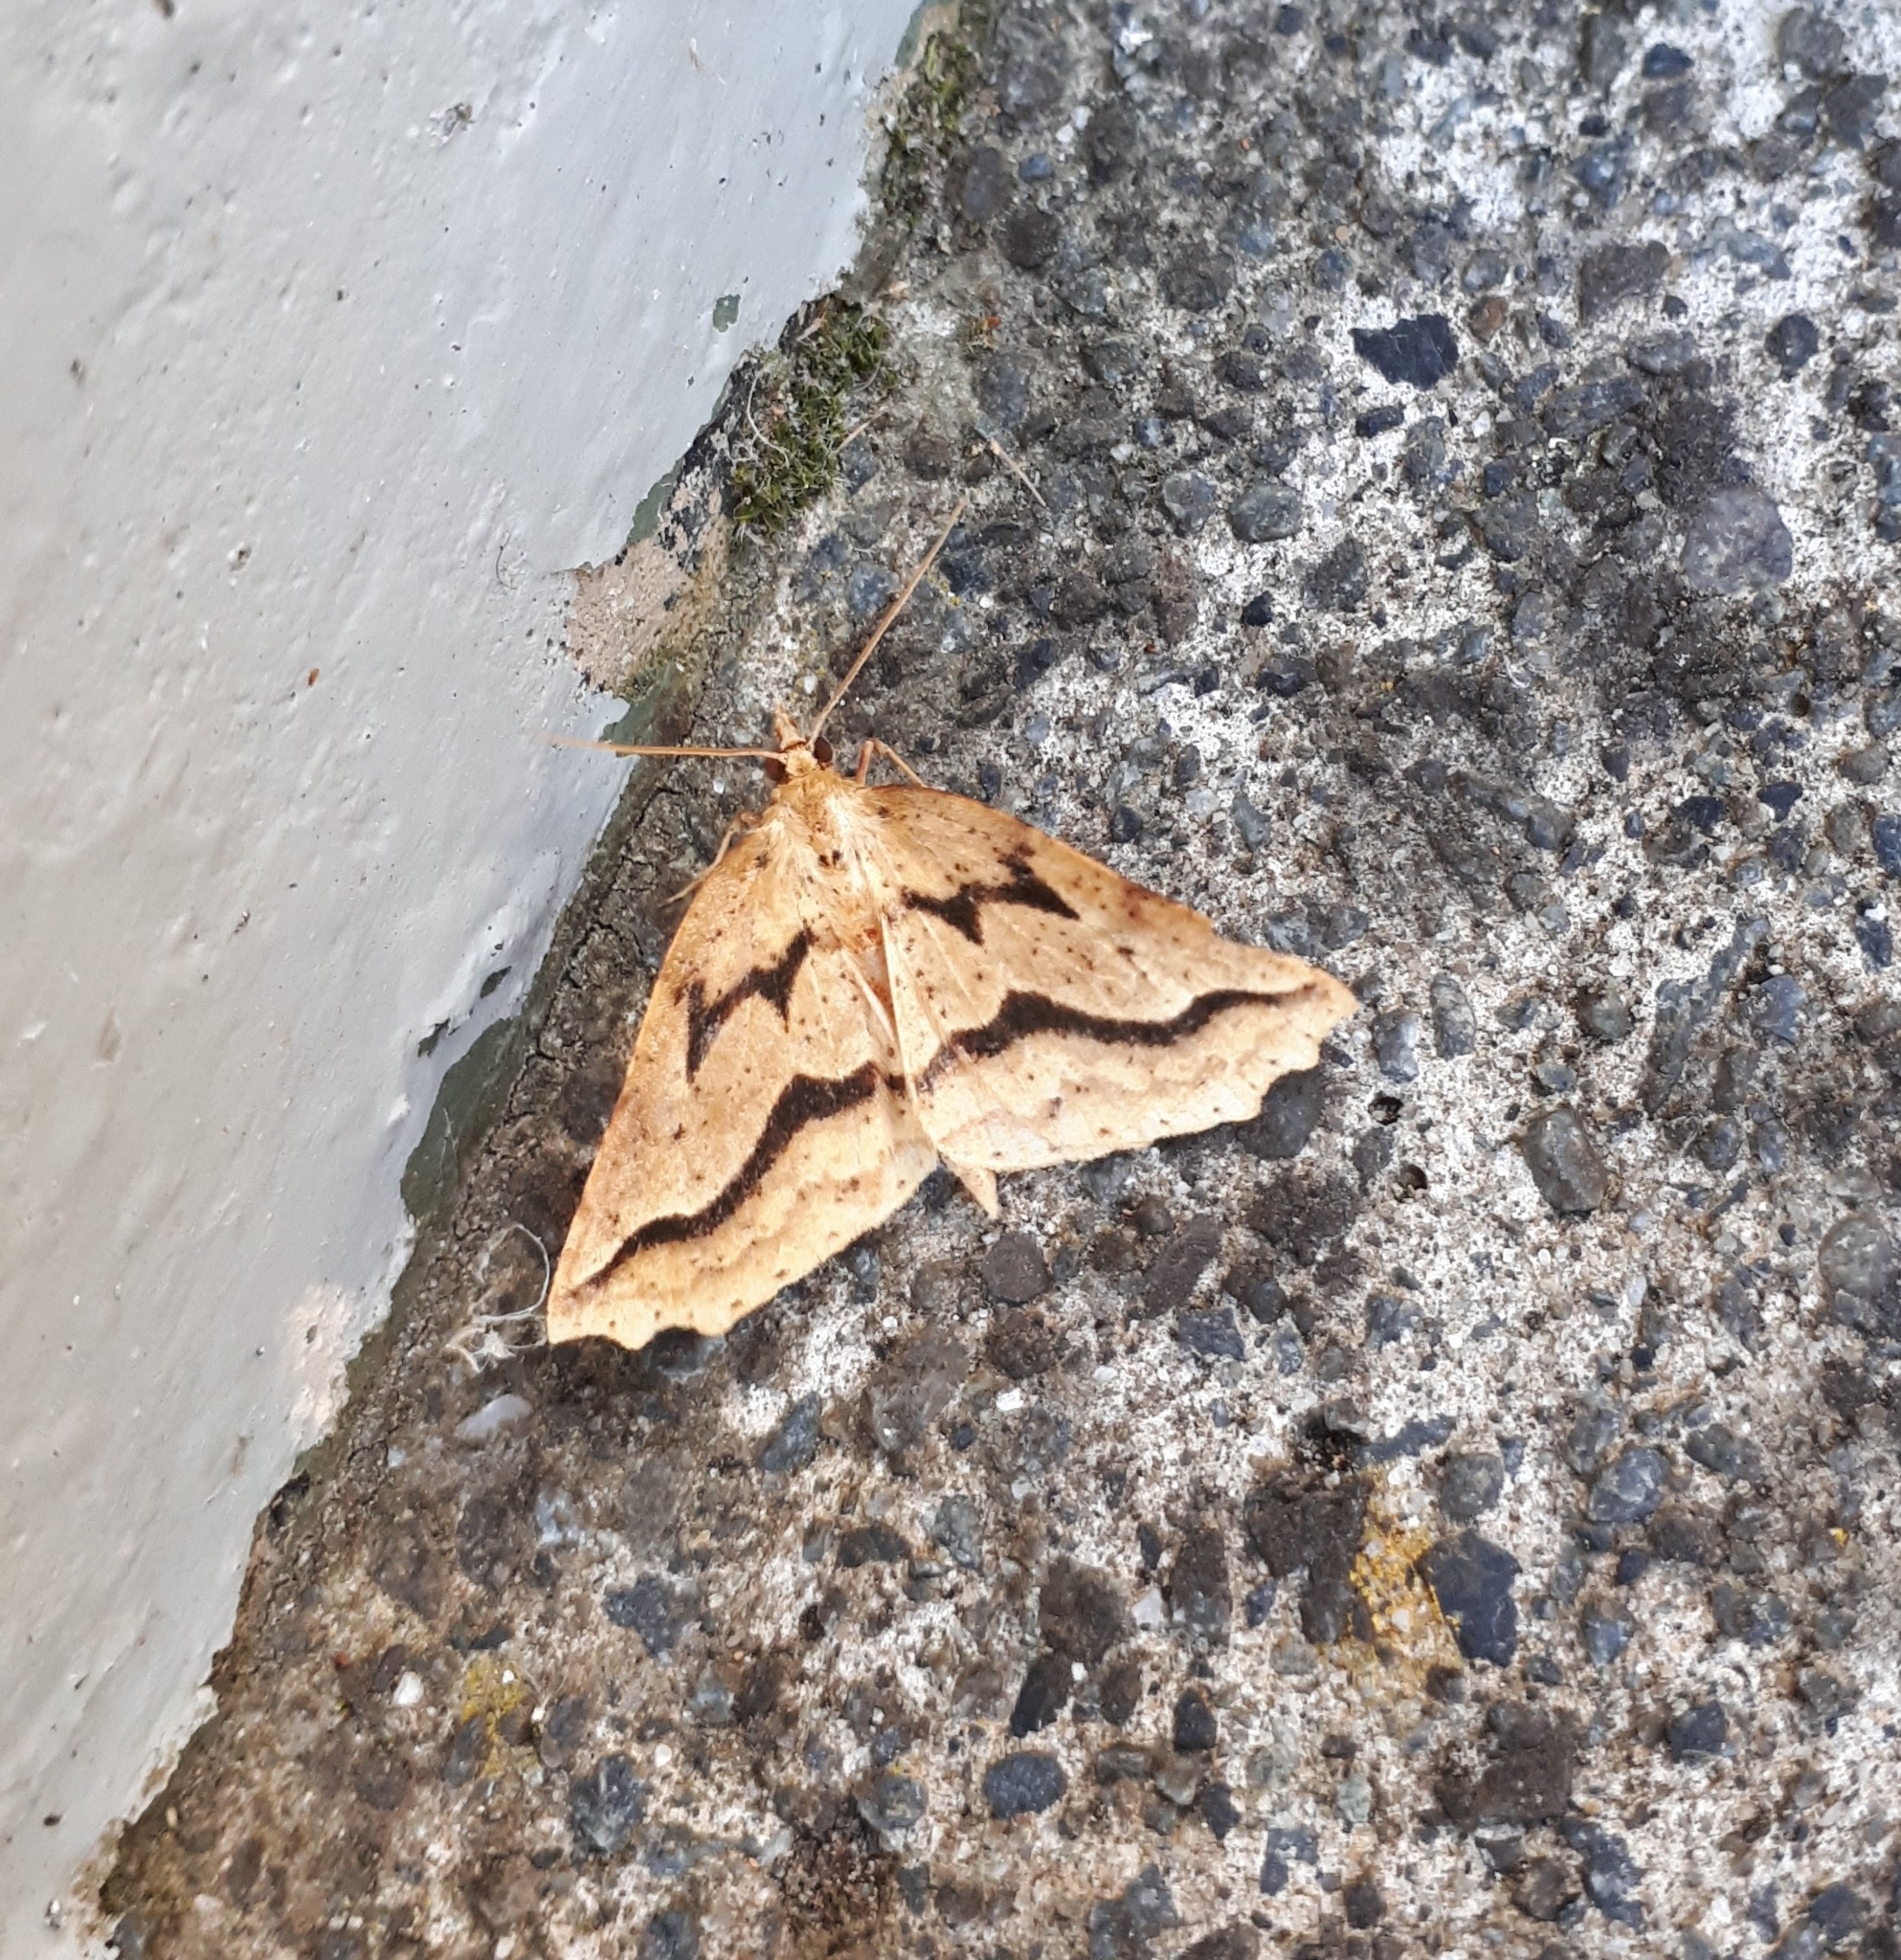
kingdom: Animalia
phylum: Arthropoda
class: Insecta
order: Lepidoptera
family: Geometridae
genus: Ischalis
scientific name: Ischalis variabilis
